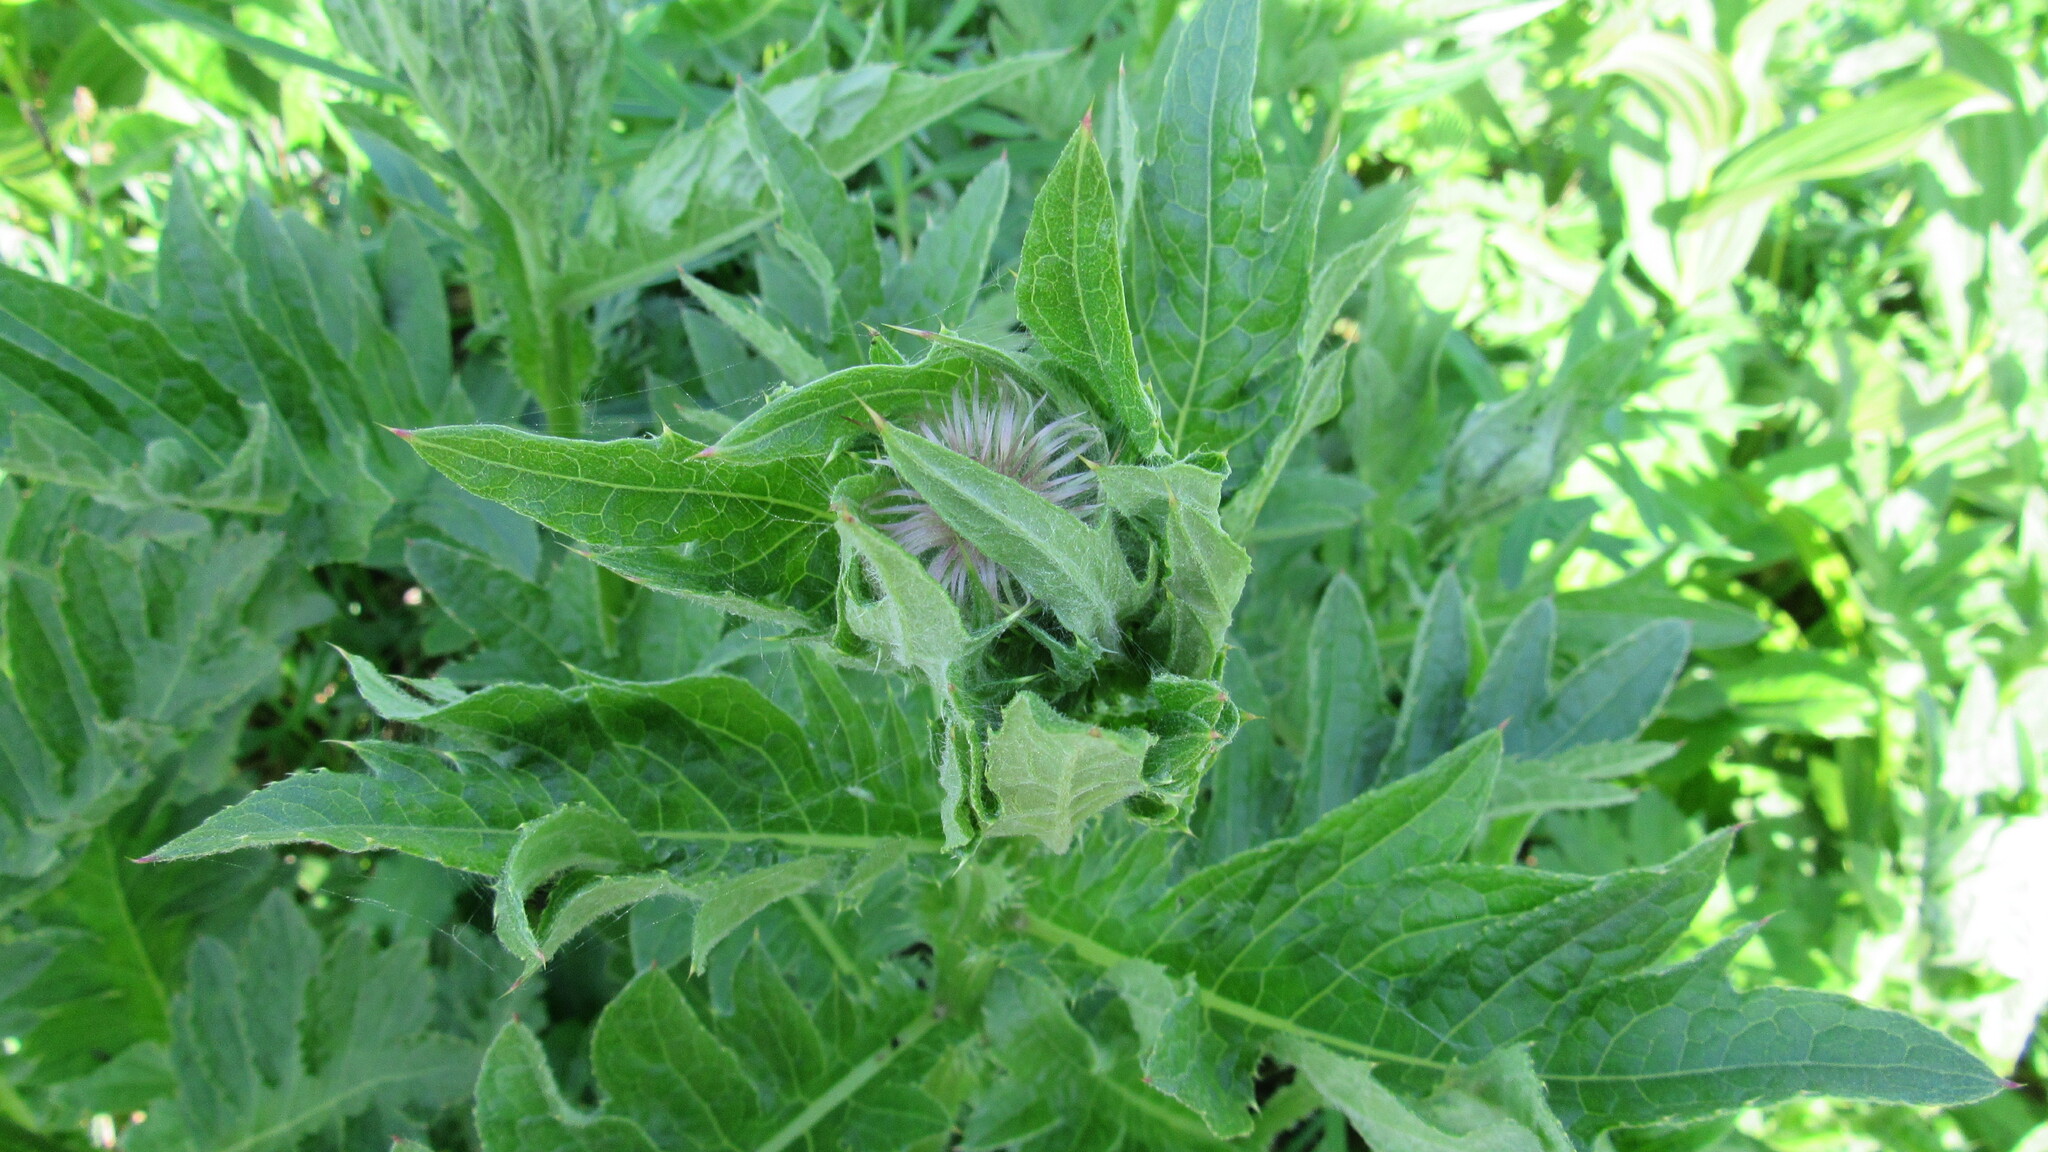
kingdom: Plantae
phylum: Tracheophyta
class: Magnoliopsida
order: Asterales
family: Asteraceae
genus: Cirsium
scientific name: Cirsium kamtschaticum
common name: Kamchatka thistle
